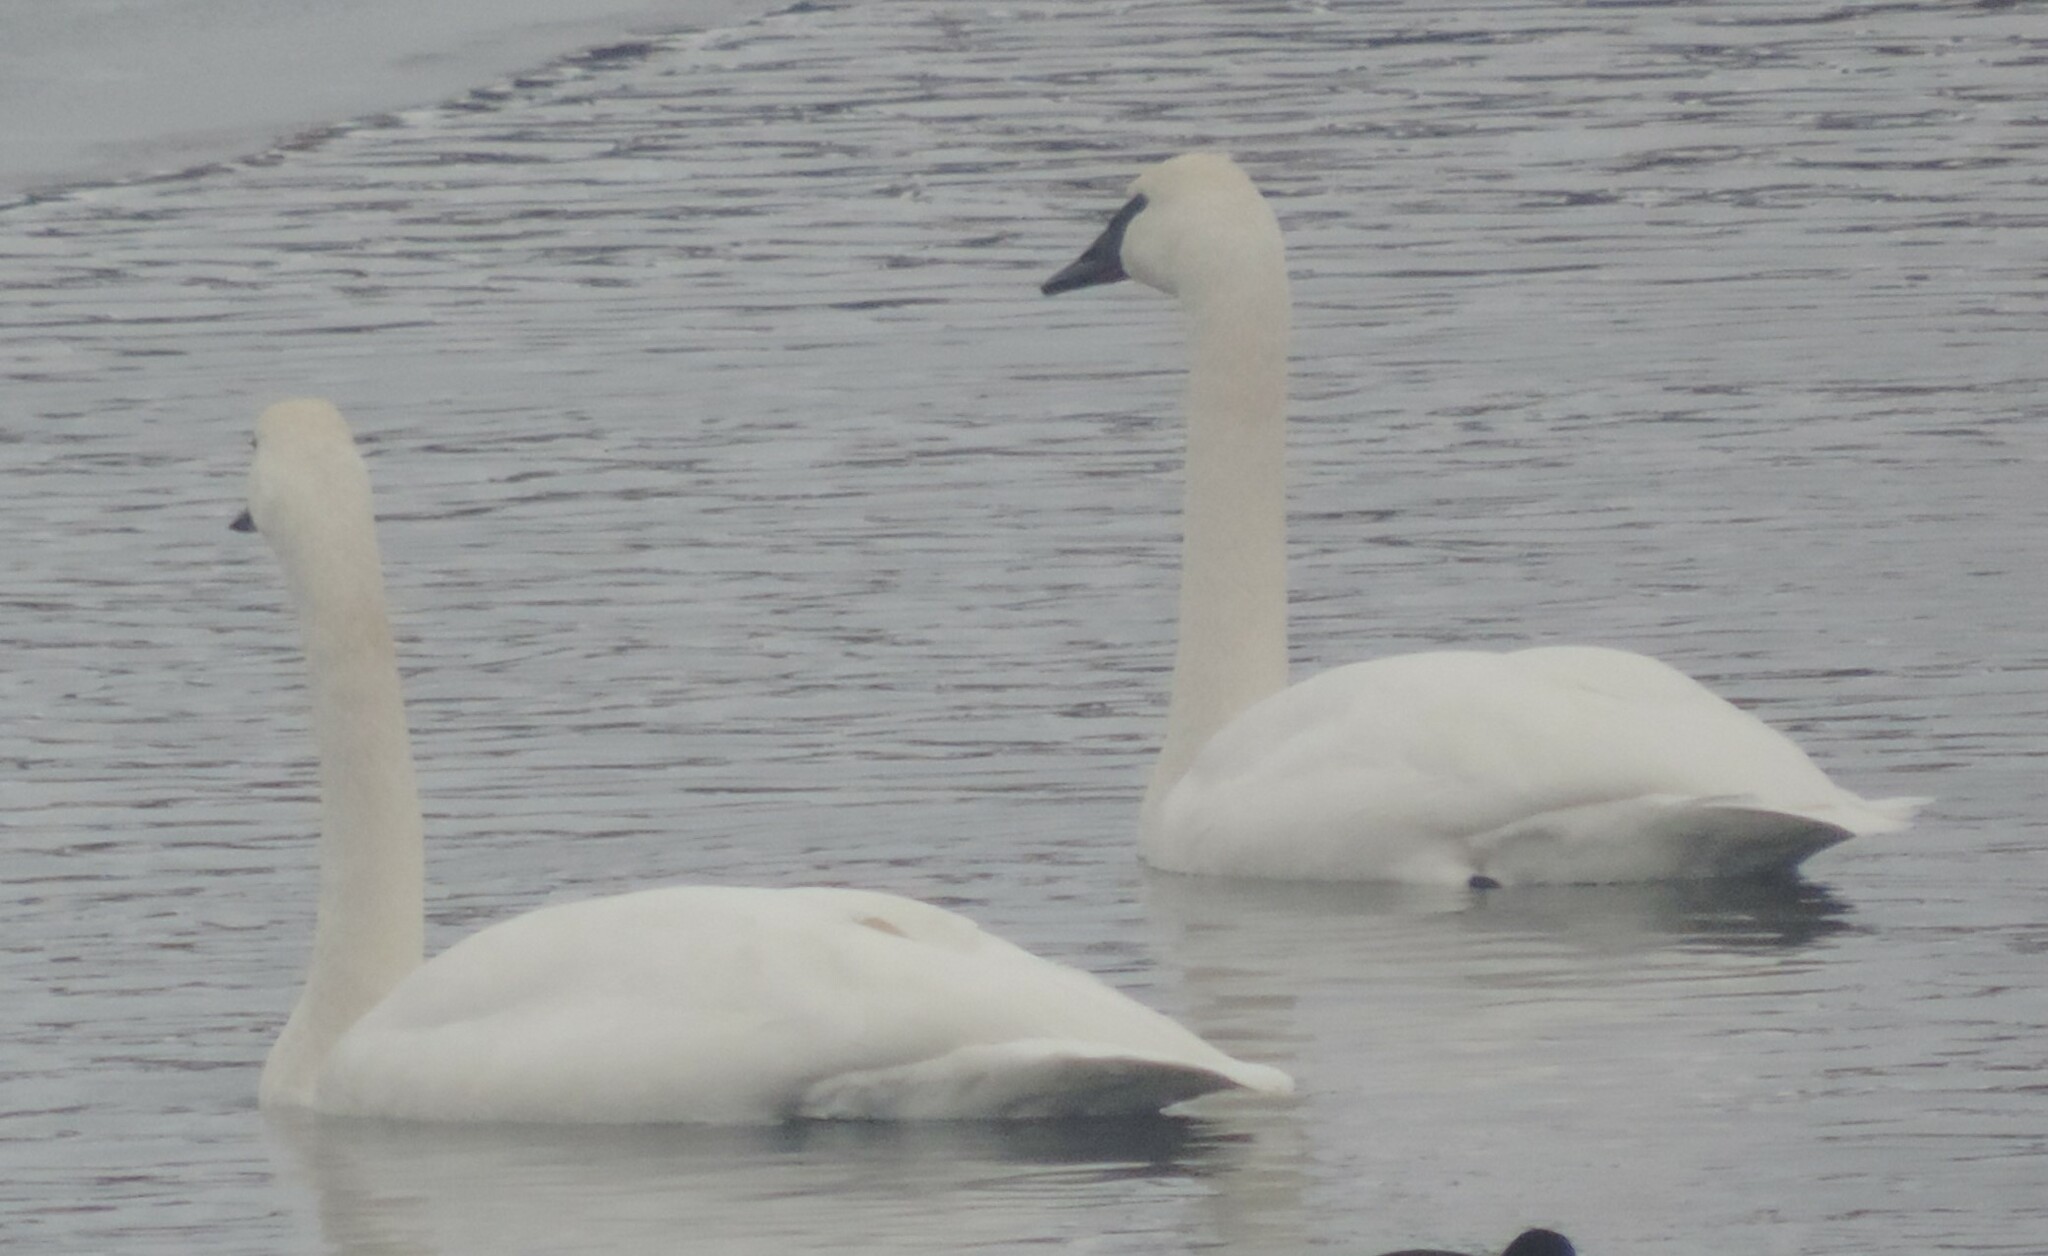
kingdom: Animalia
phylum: Chordata
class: Aves
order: Anseriformes
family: Anatidae
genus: Cygnus
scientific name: Cygnus buccinator
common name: Trumpeter swan
